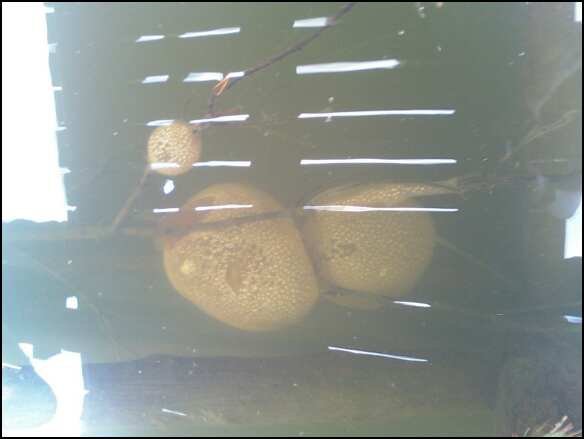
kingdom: Animalia
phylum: Bryozoa
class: Phylactolaemata
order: Plumatellida
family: Pectinatellidae
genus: Pectinatella
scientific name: Pectinatella magnifica
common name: Magnificent bryozoan
